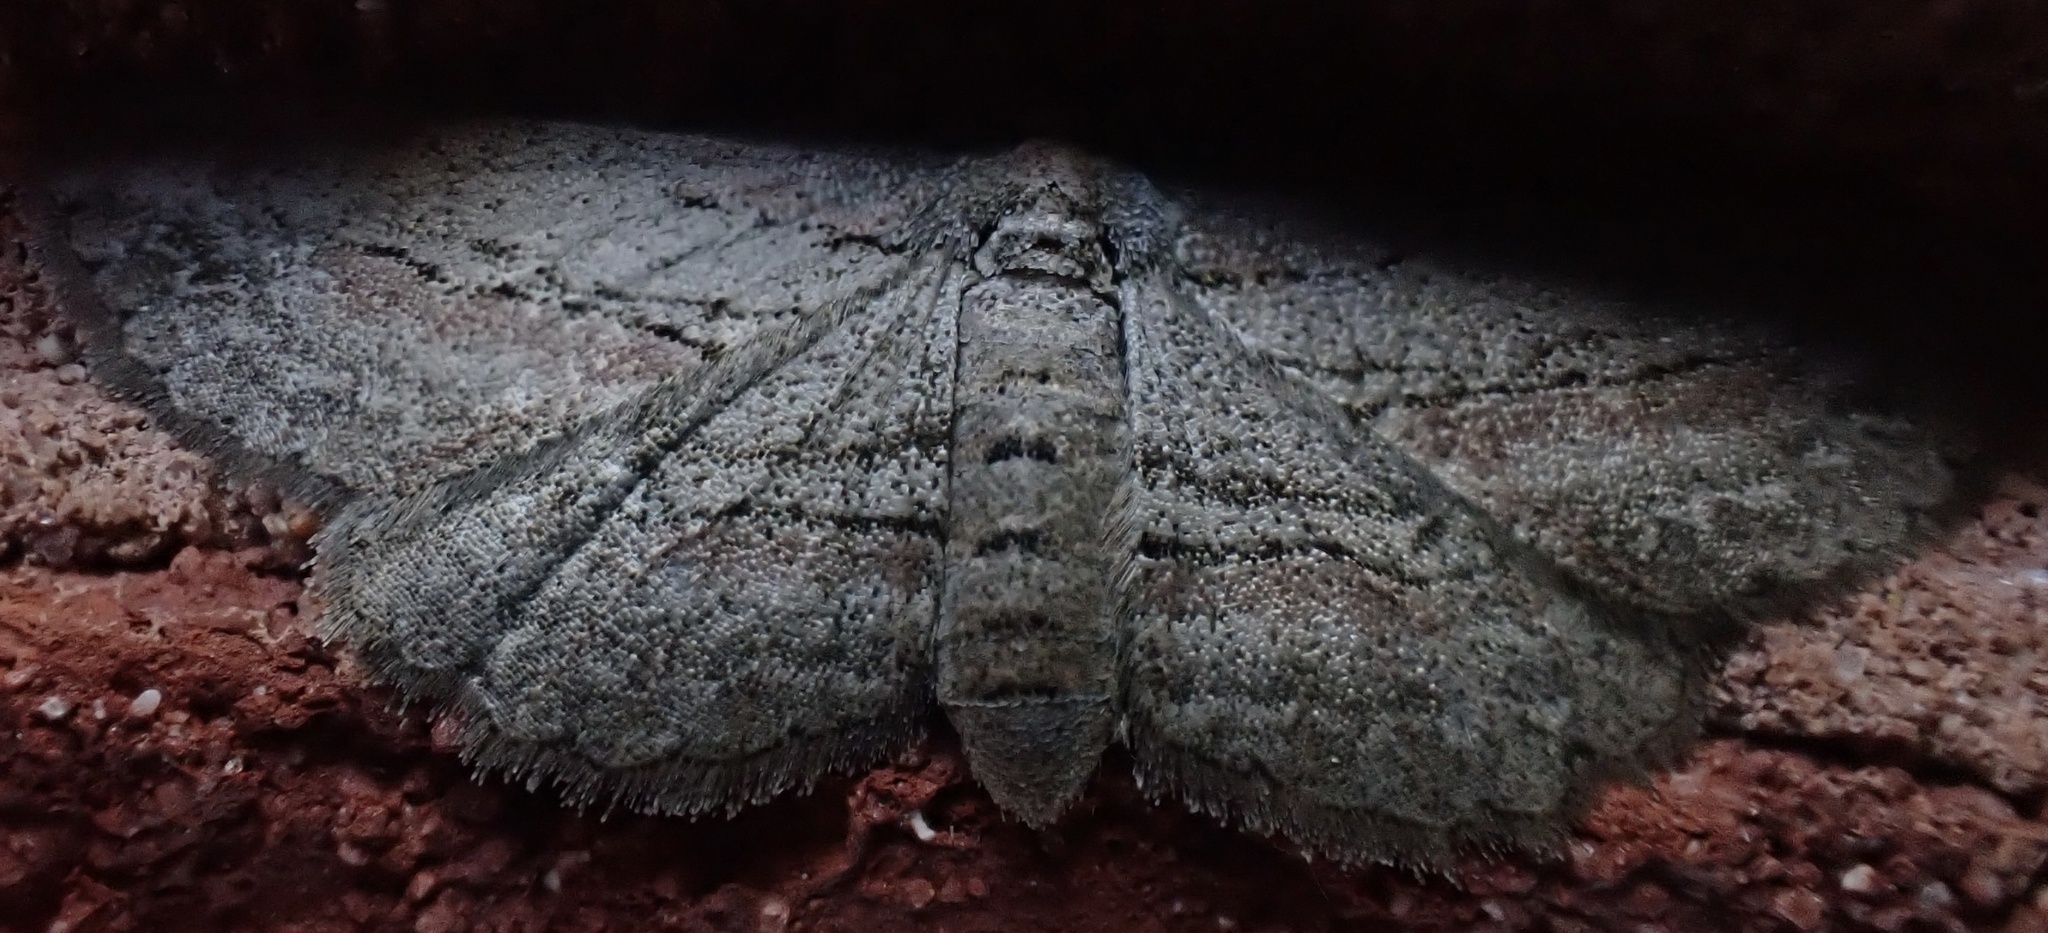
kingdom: Animalia
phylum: Arthropoda
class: Insecta
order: Lepidoptera
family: Geometridae
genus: Glena
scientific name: Glena plumosaria
